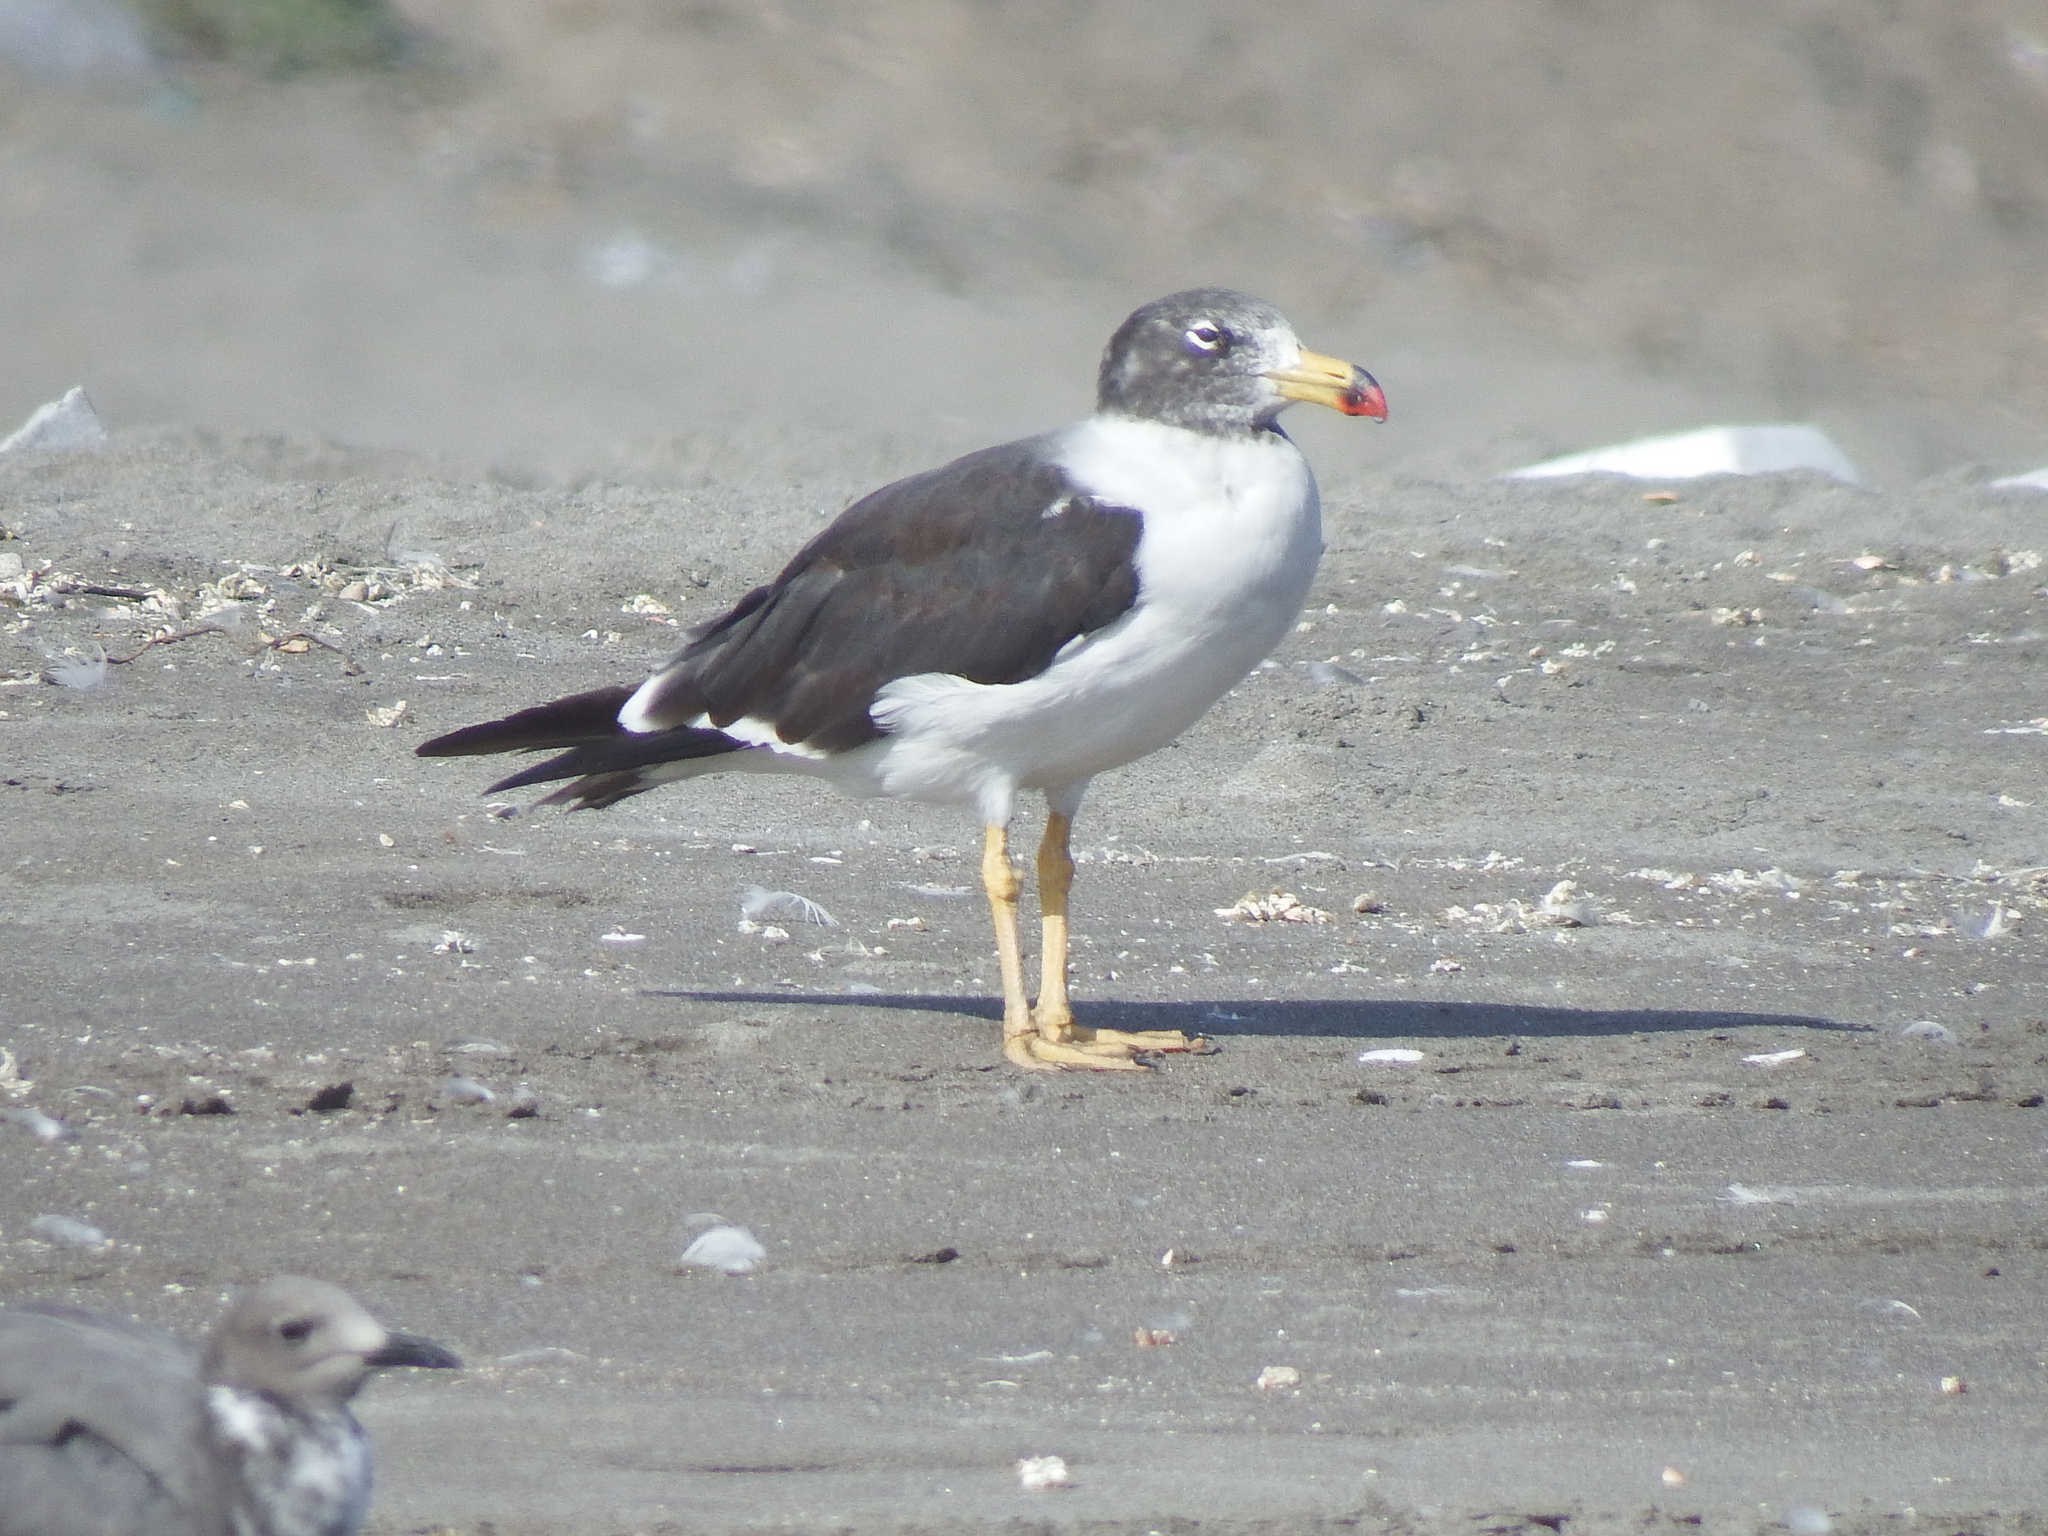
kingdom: Animalia
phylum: Chordata
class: Aves
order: Charadriiformes
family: Laridae
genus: Larus
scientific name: Larus belcheri
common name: Belcher's gull
